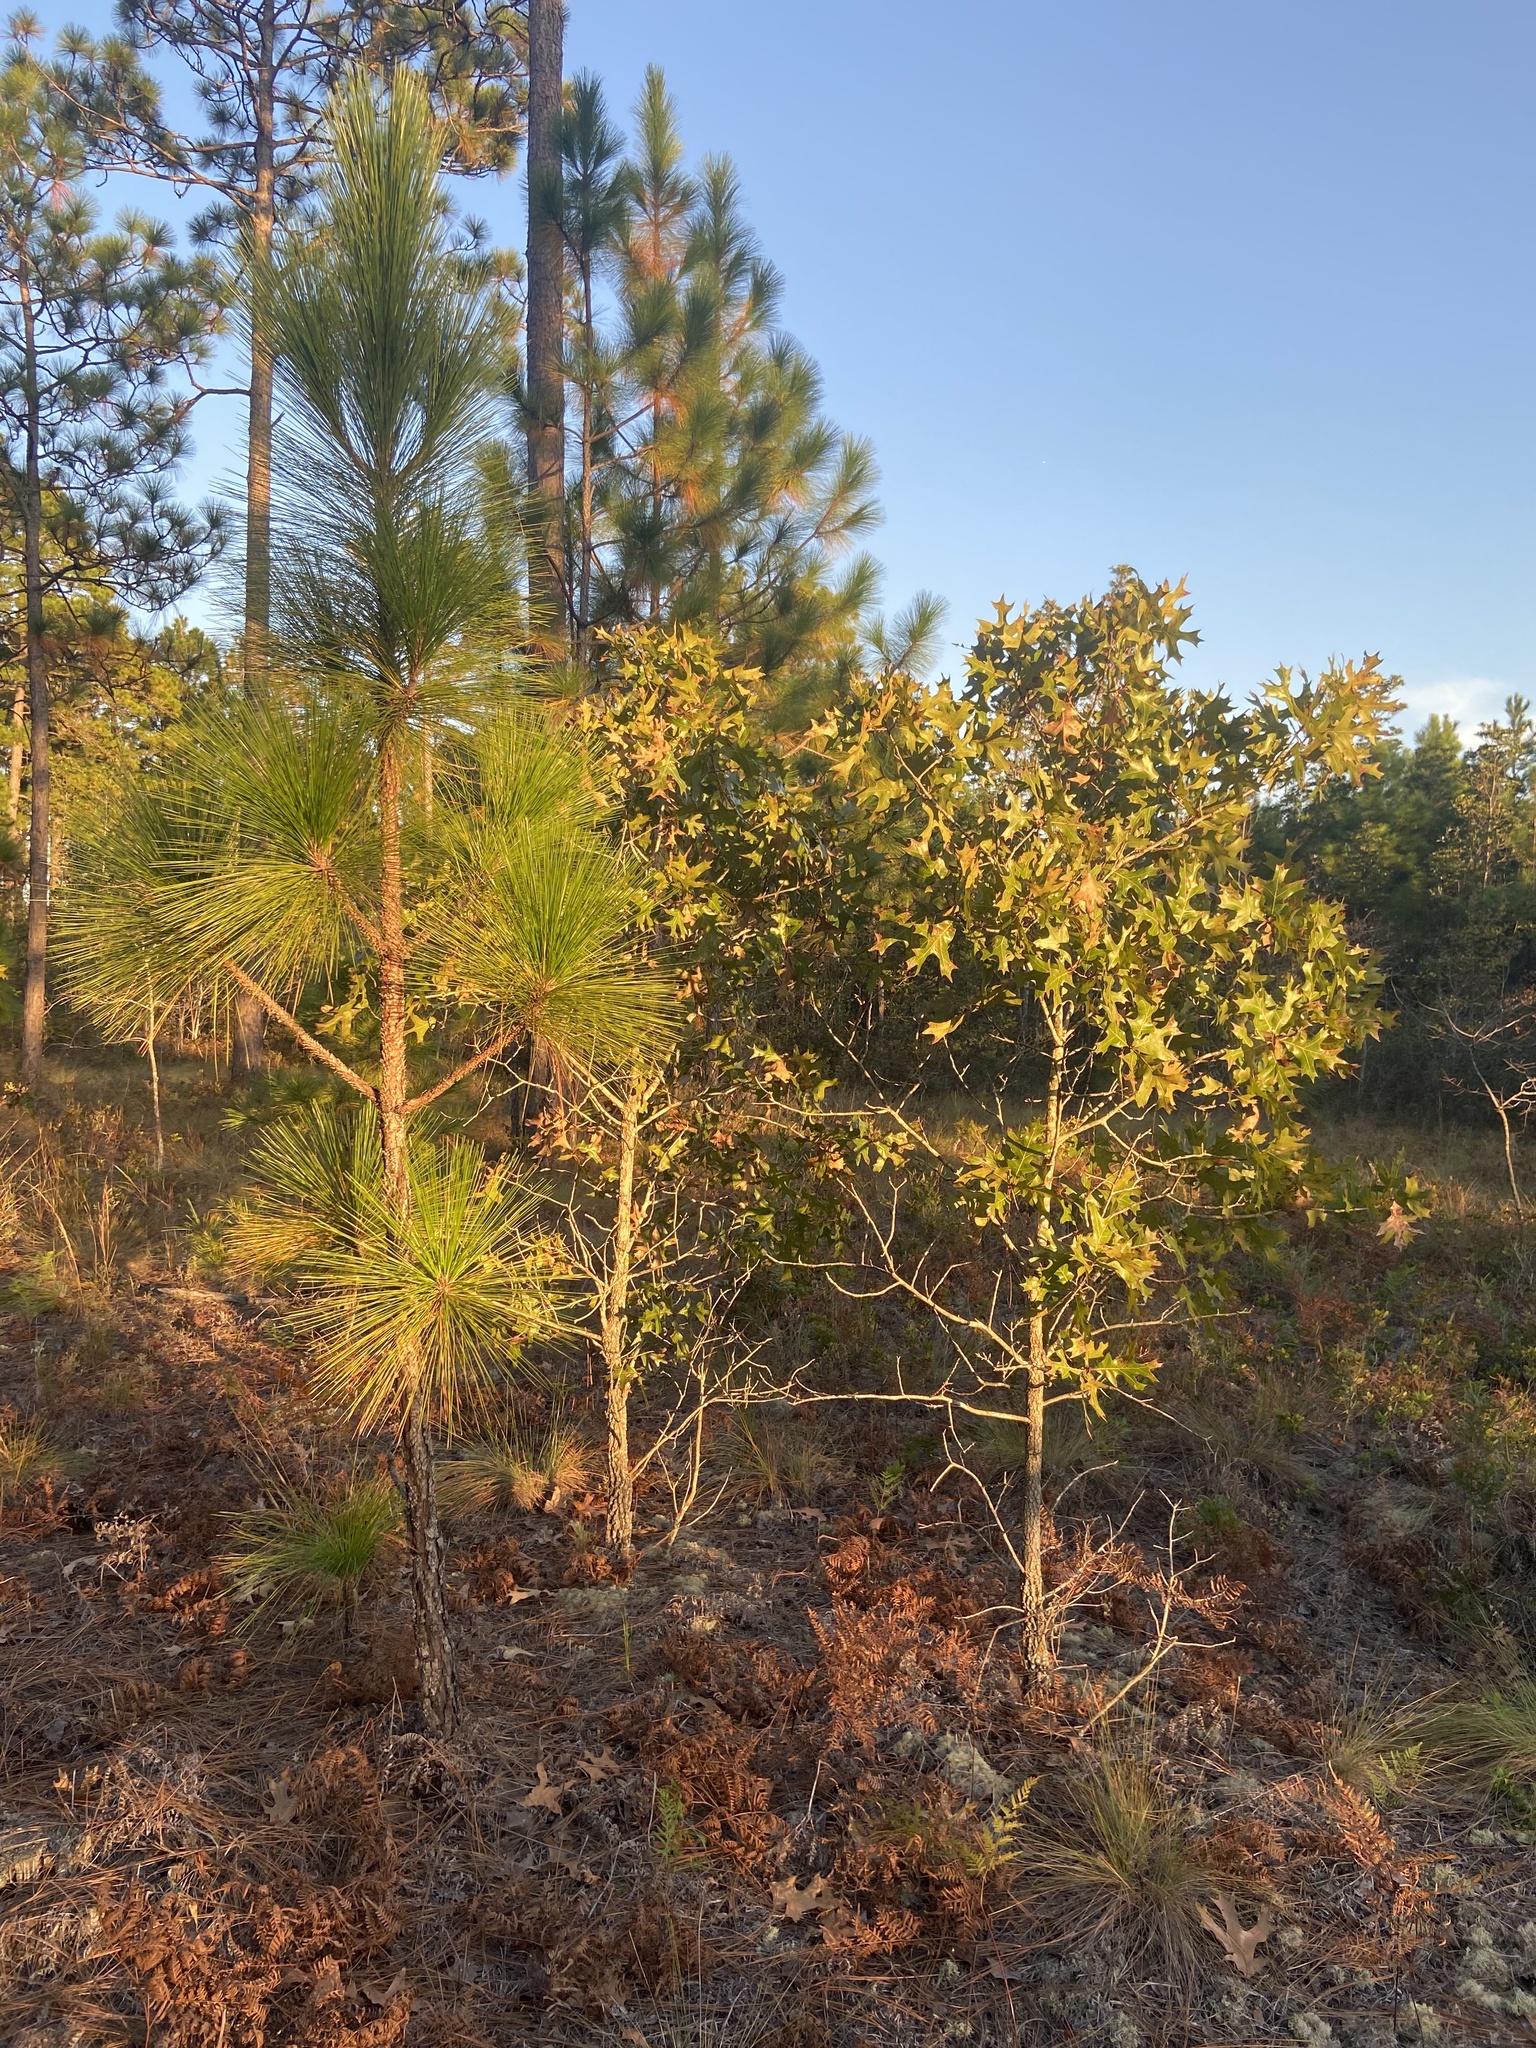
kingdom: Plantae
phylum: Tracheophyta
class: Magnoliopsida
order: Fagales
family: Fagaceae
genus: Quercus
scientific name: Quercus laevis
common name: Turkey oak
